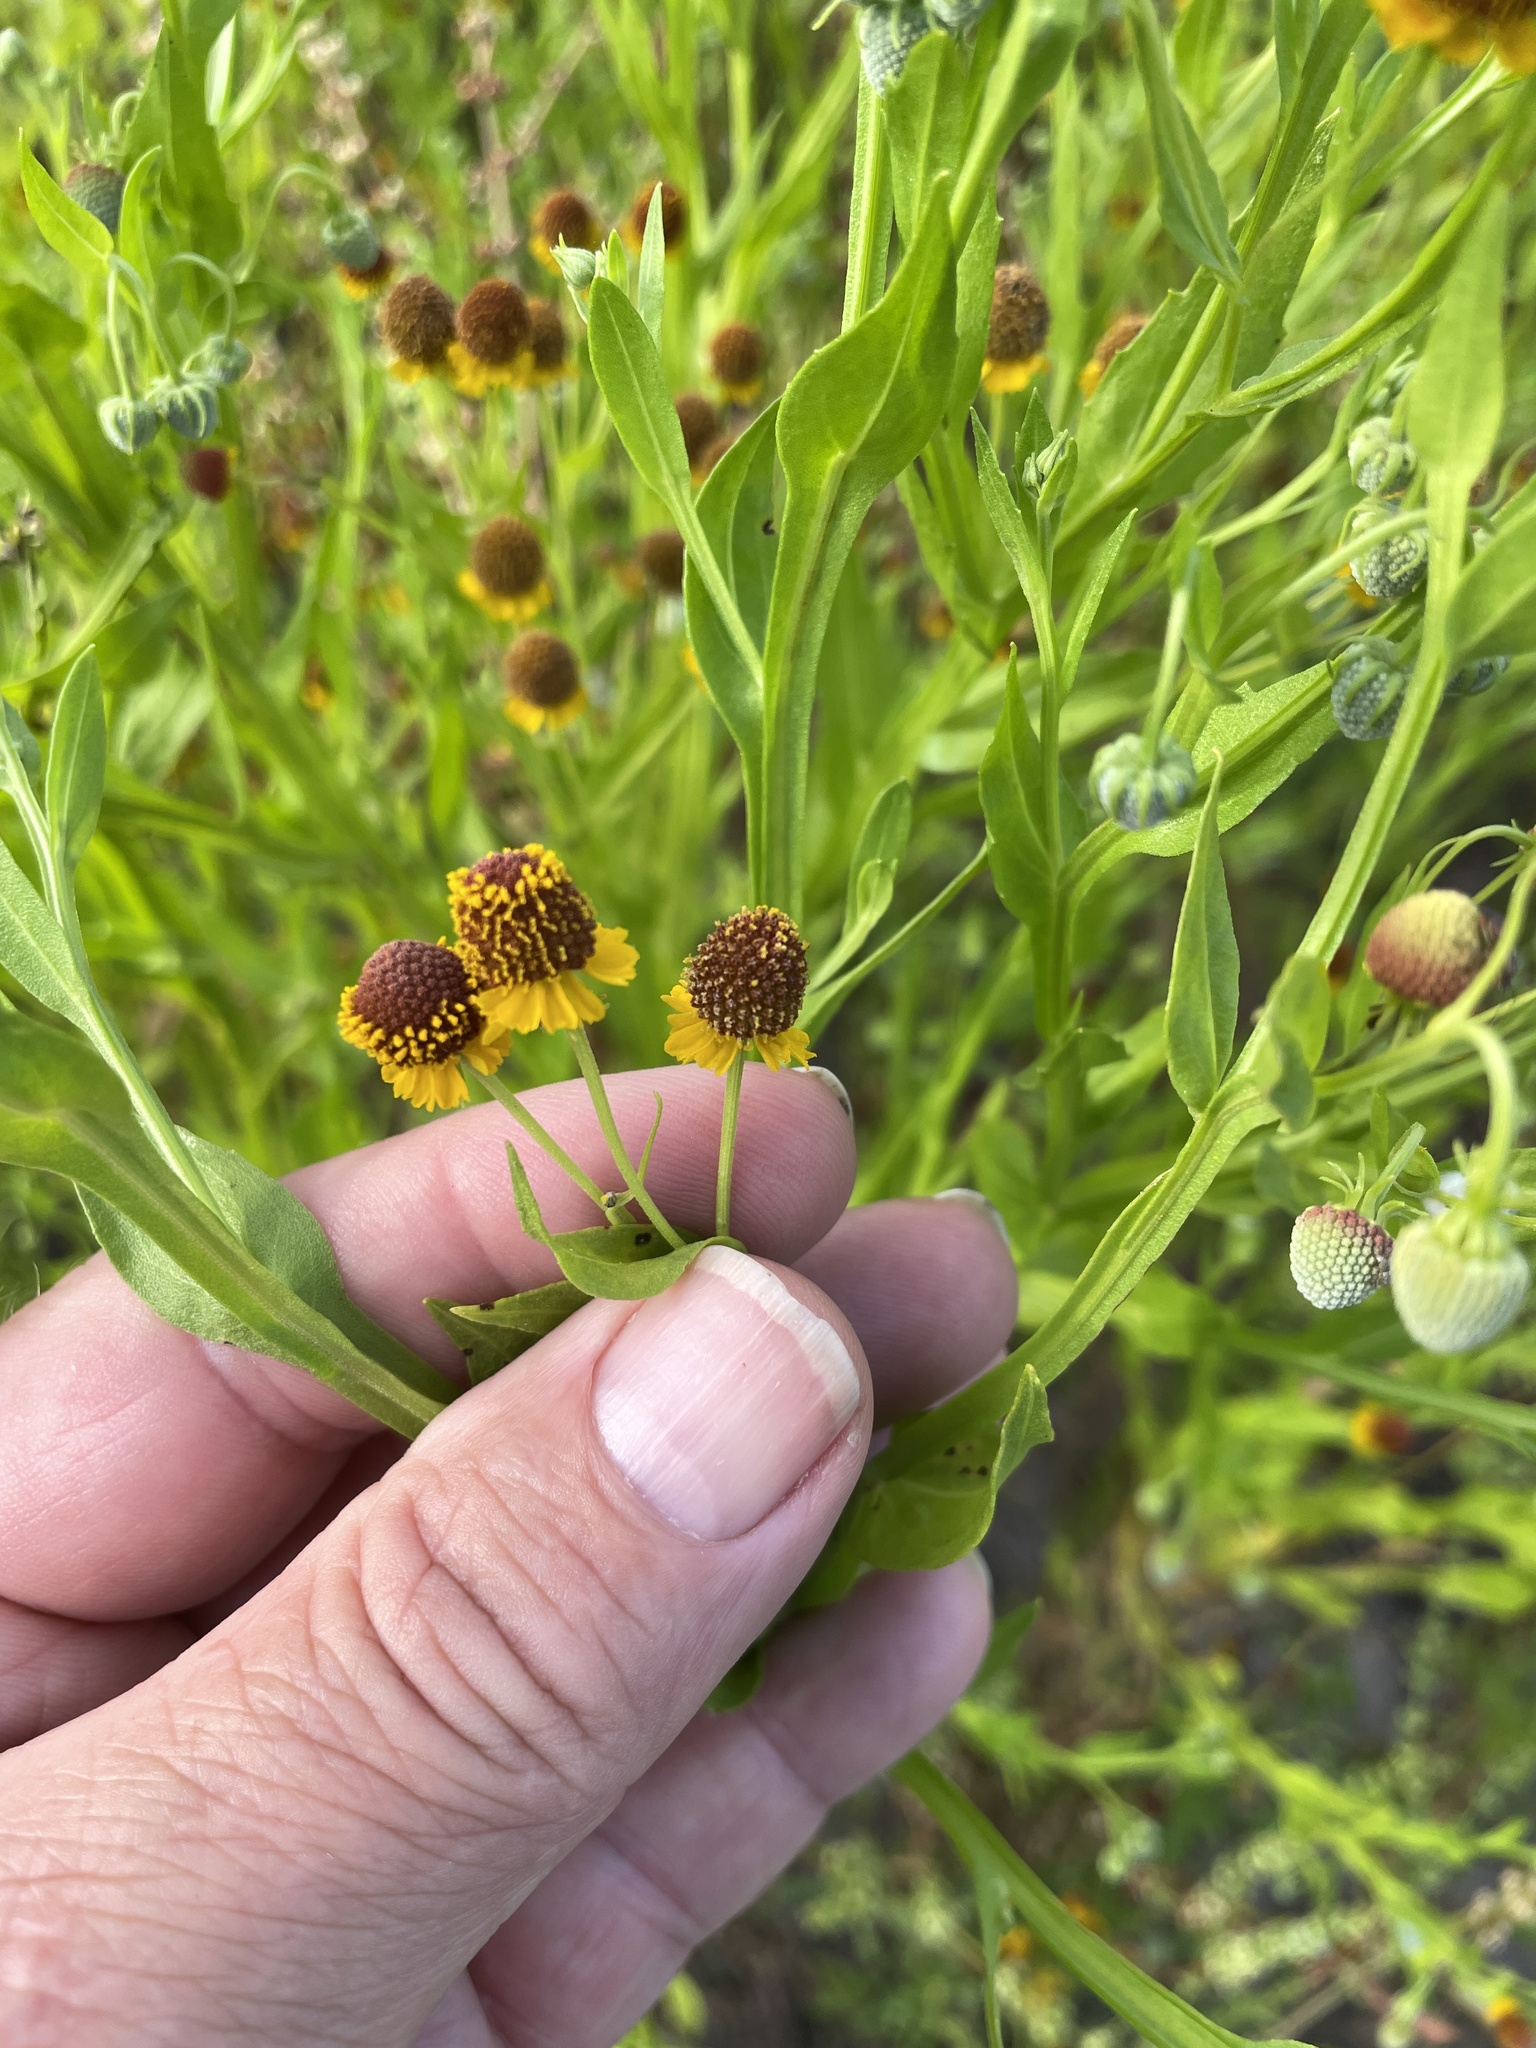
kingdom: Plantae
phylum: Tracheophyta
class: Magnoliopsida
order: Asterales
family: Asteraceae
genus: Helenium
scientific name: Helenium microcephalum
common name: Smallhead sneezeweed
